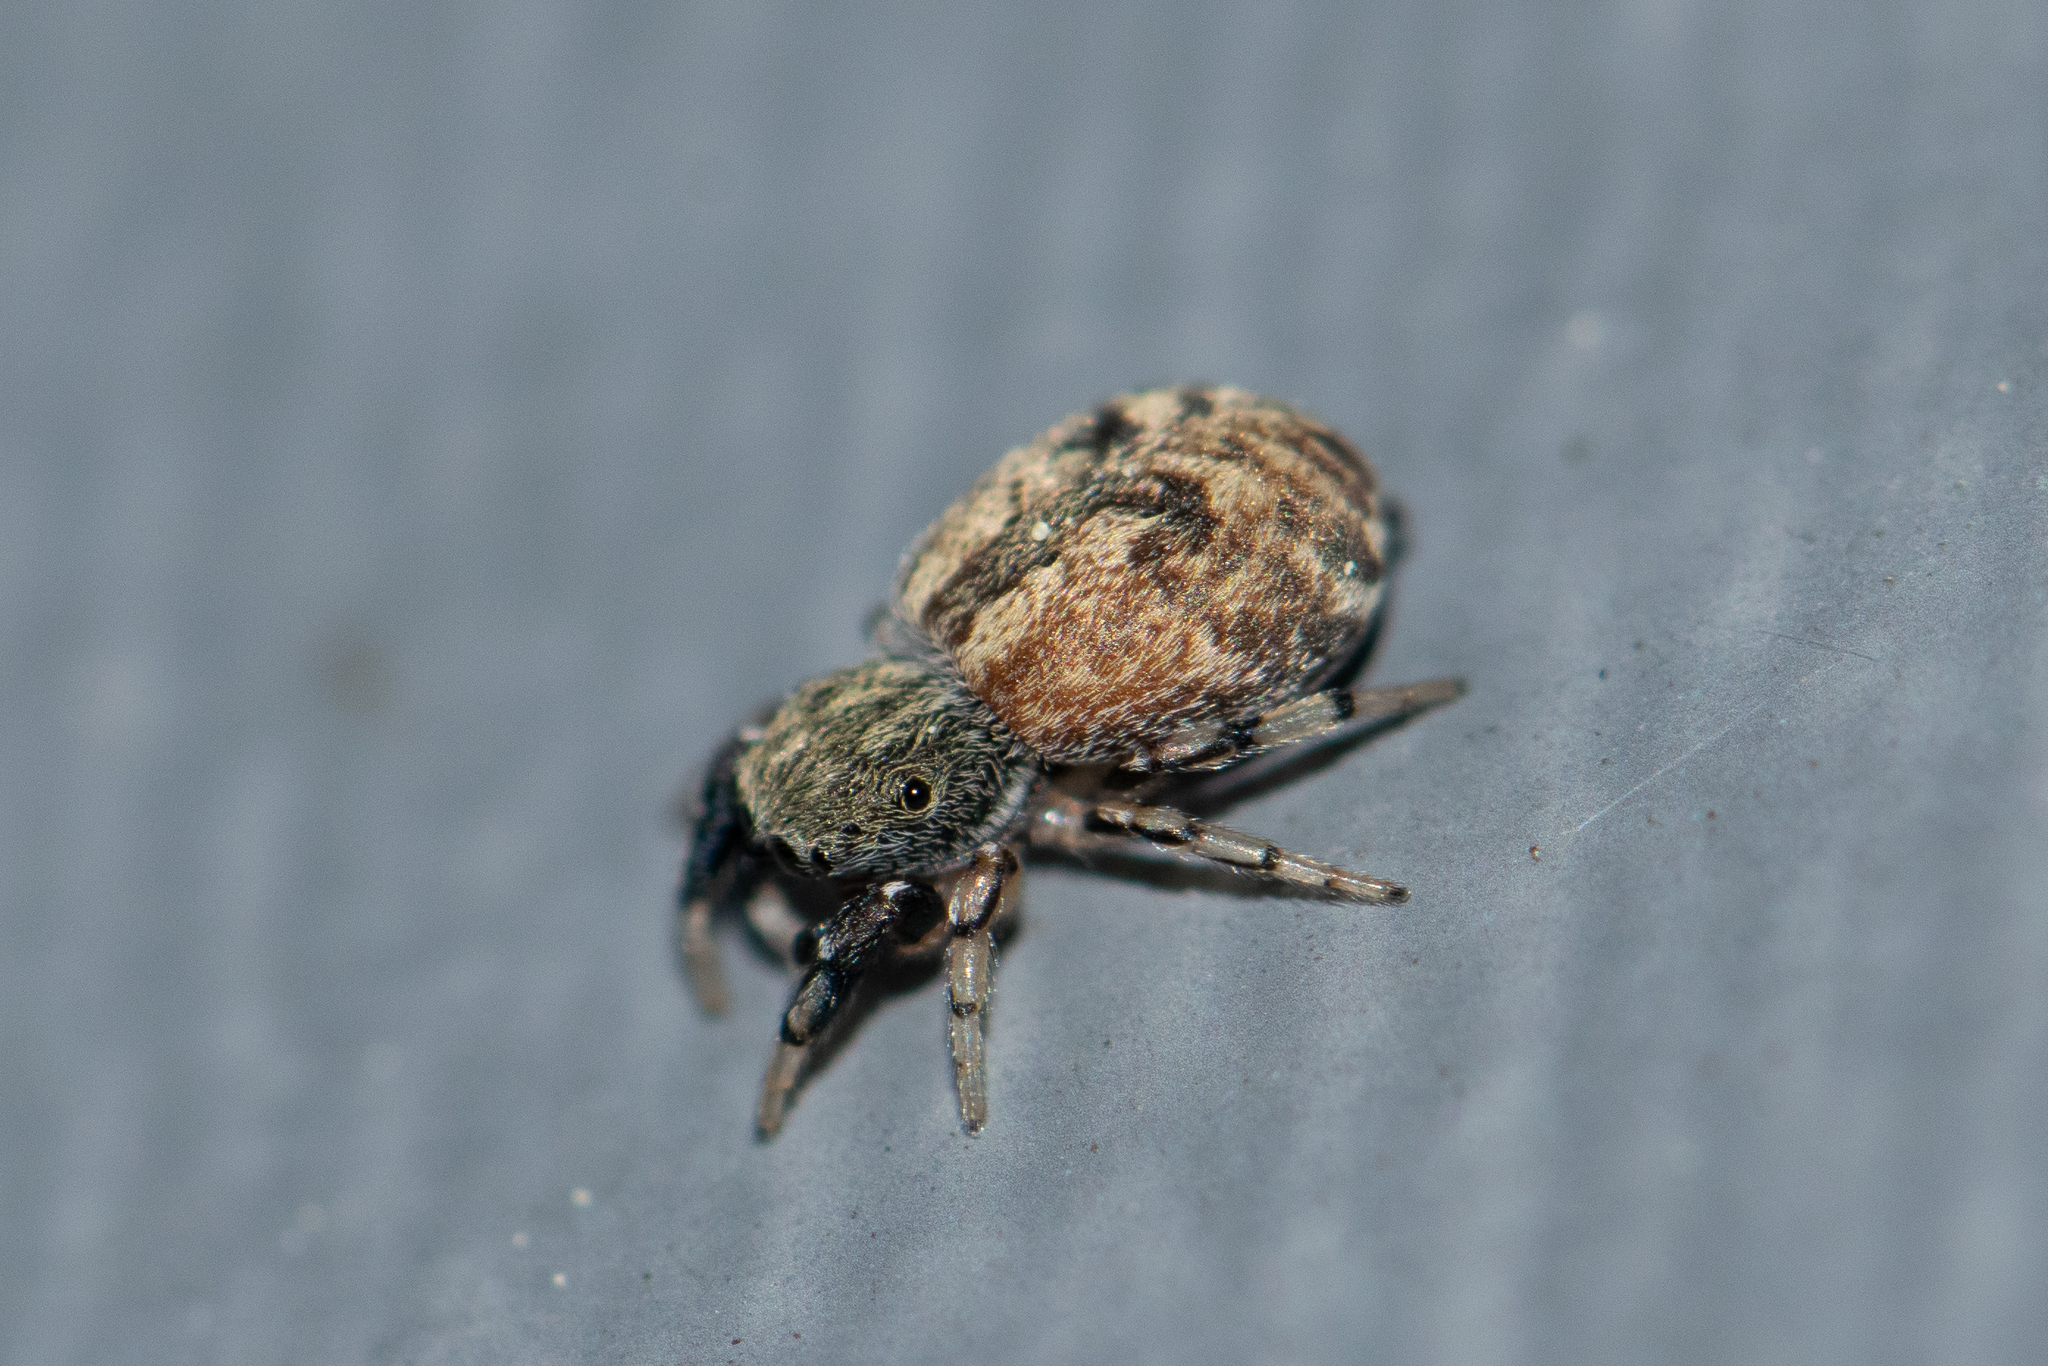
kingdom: Animalia
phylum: Arthropoda
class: Arachnida
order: Araneae
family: Salticidae
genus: Ballus
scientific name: Ballus chalybeius
